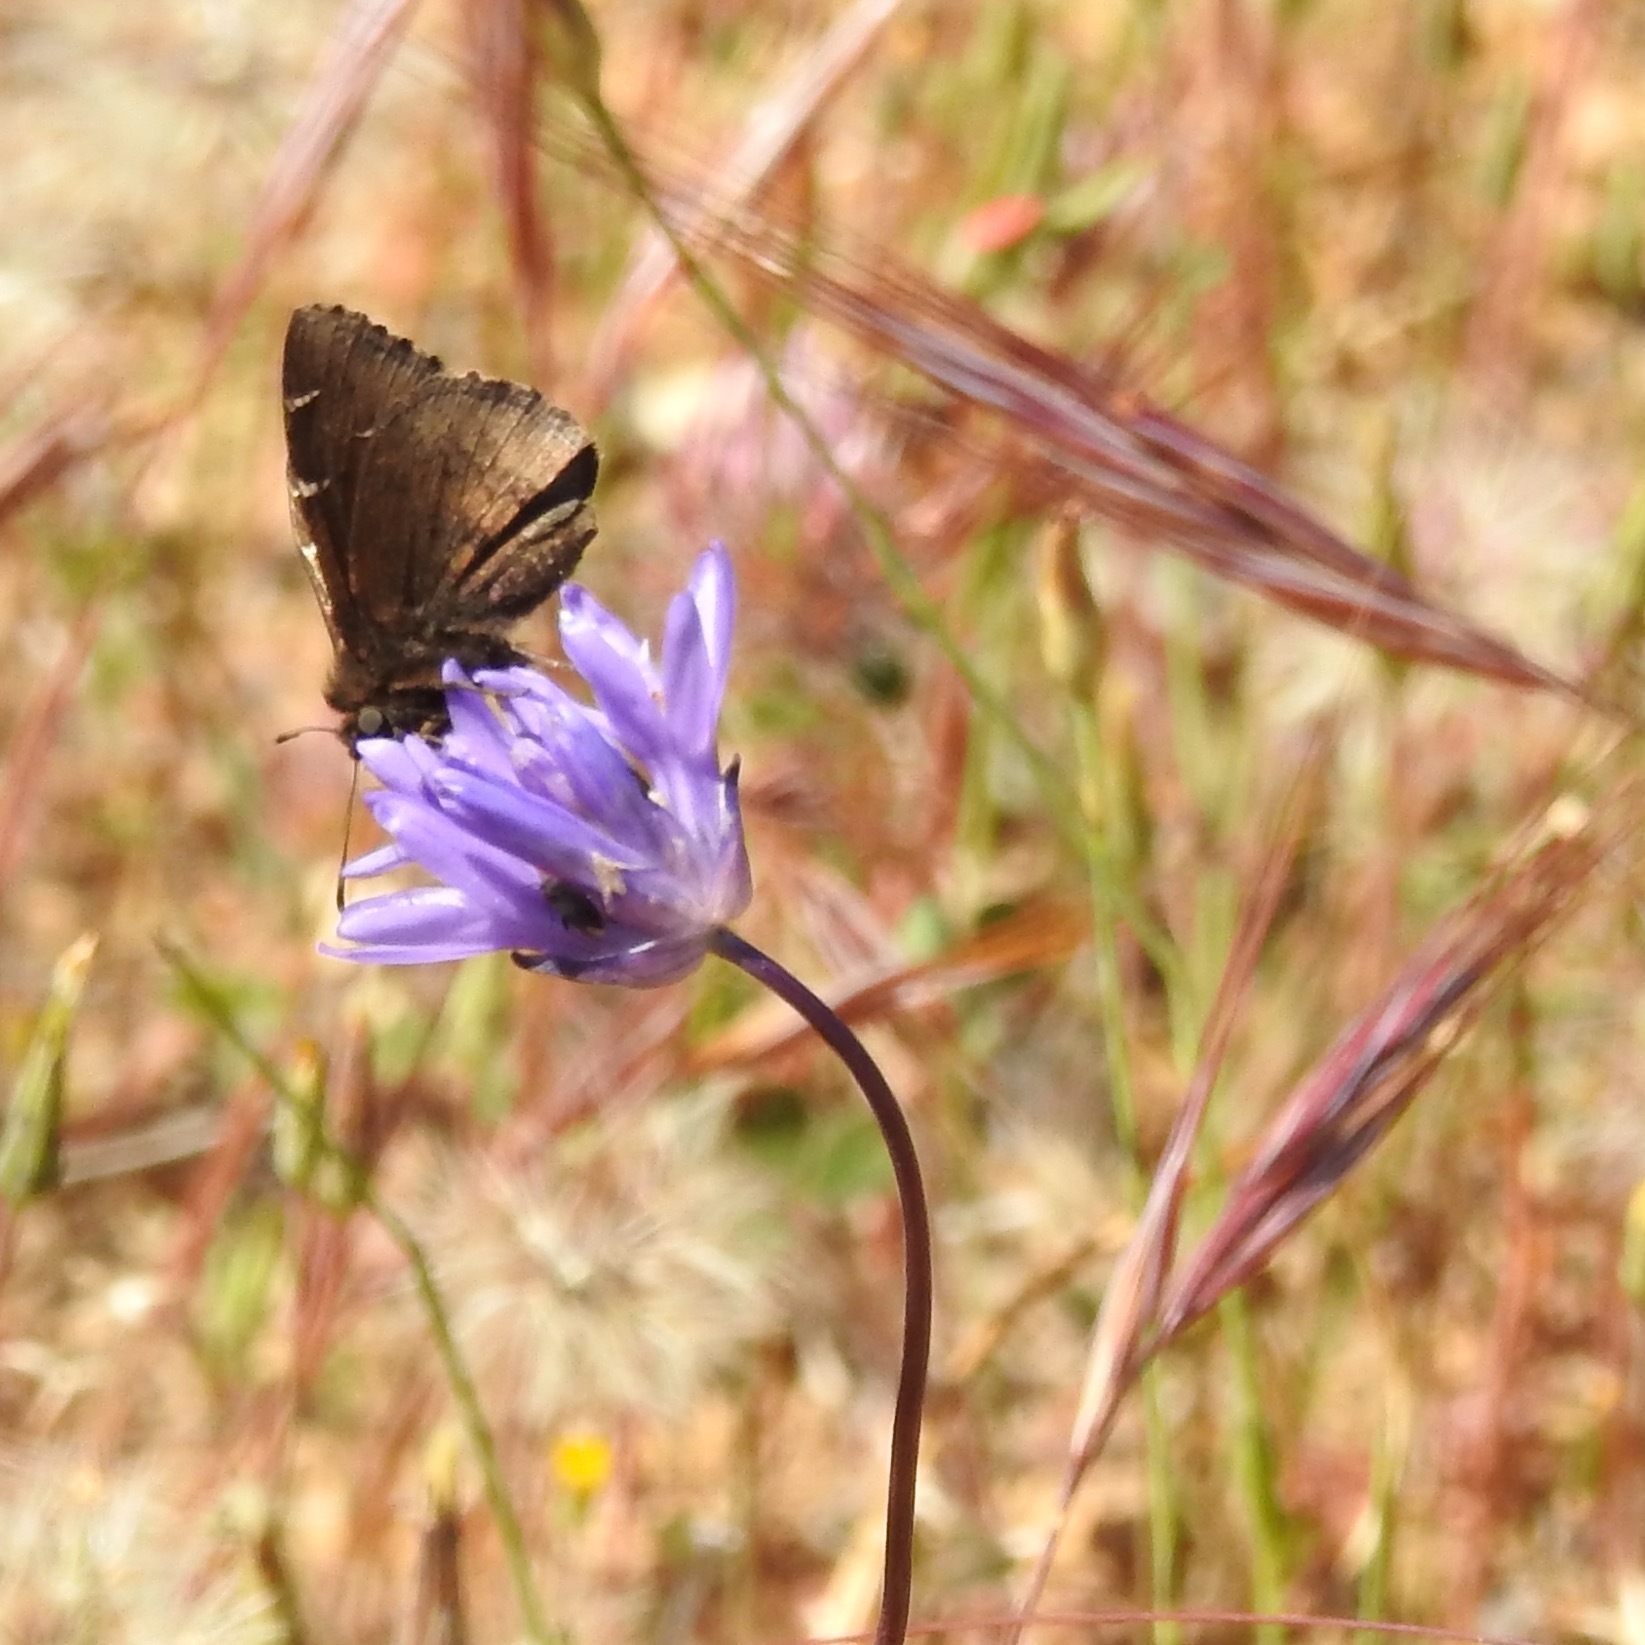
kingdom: Plantae
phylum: Tracheophyta
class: Liliopsida
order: Asparagales
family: Asparagaceae
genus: Dichelostemma
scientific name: Dichelostemma congestum
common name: Fork-tooth ookow
